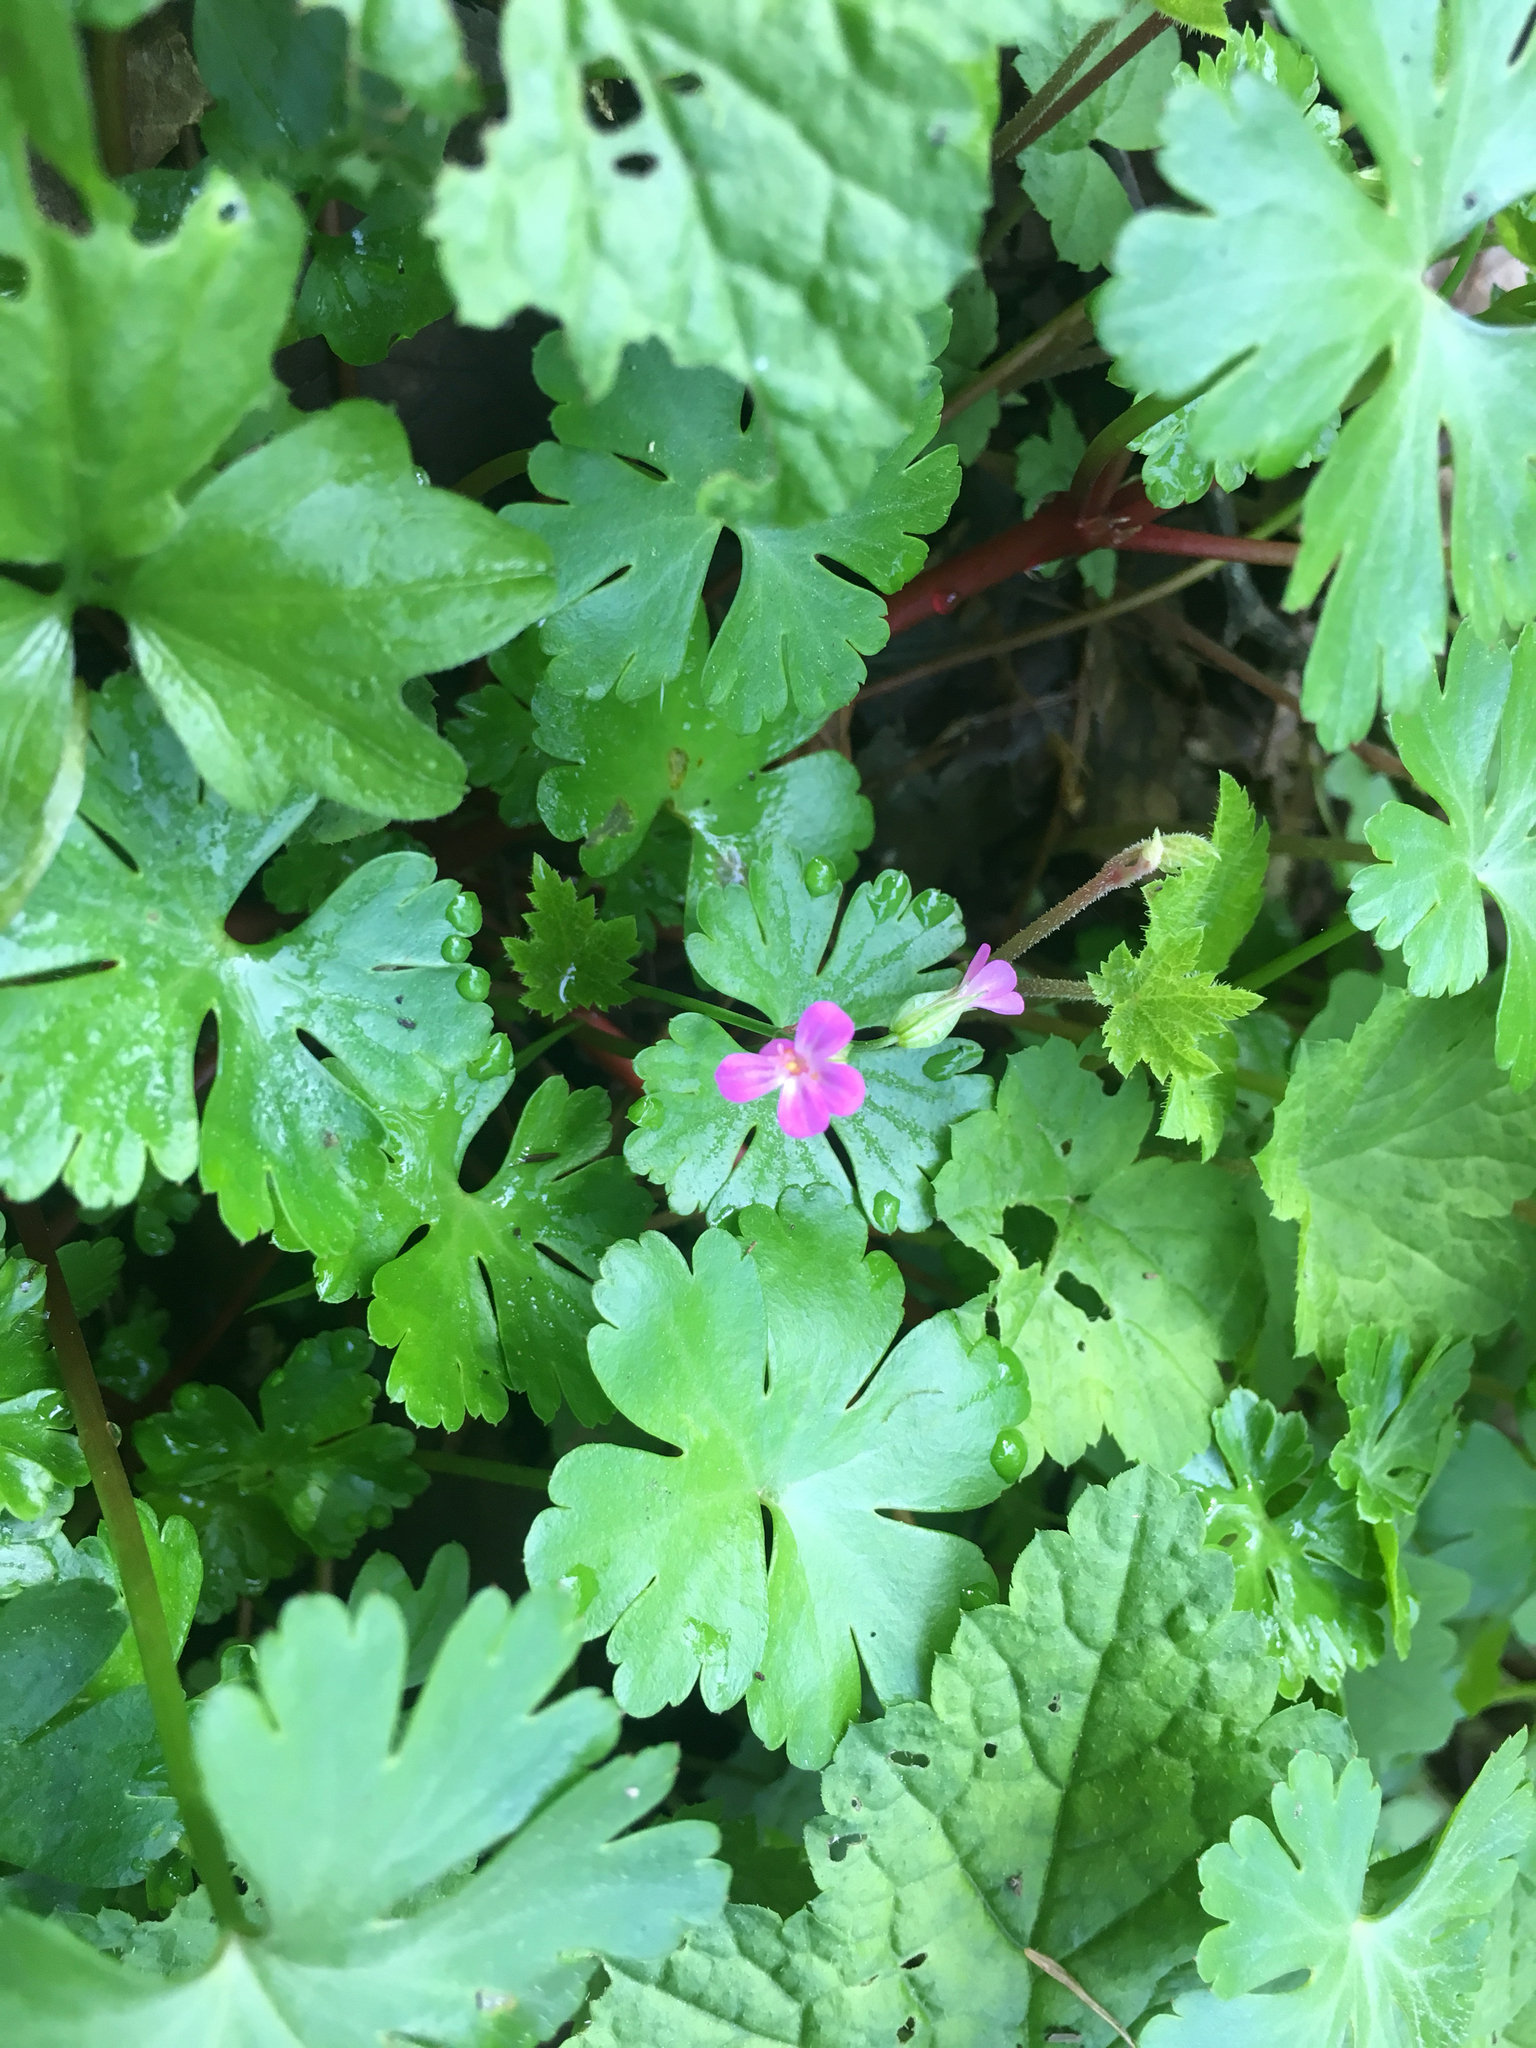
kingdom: Plantae
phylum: Tracheophyta
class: Magnoliopsida
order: Geraniales
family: Geraniaceae
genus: Geranium
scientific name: Geranium lucidum
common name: Shining crane's-bill
